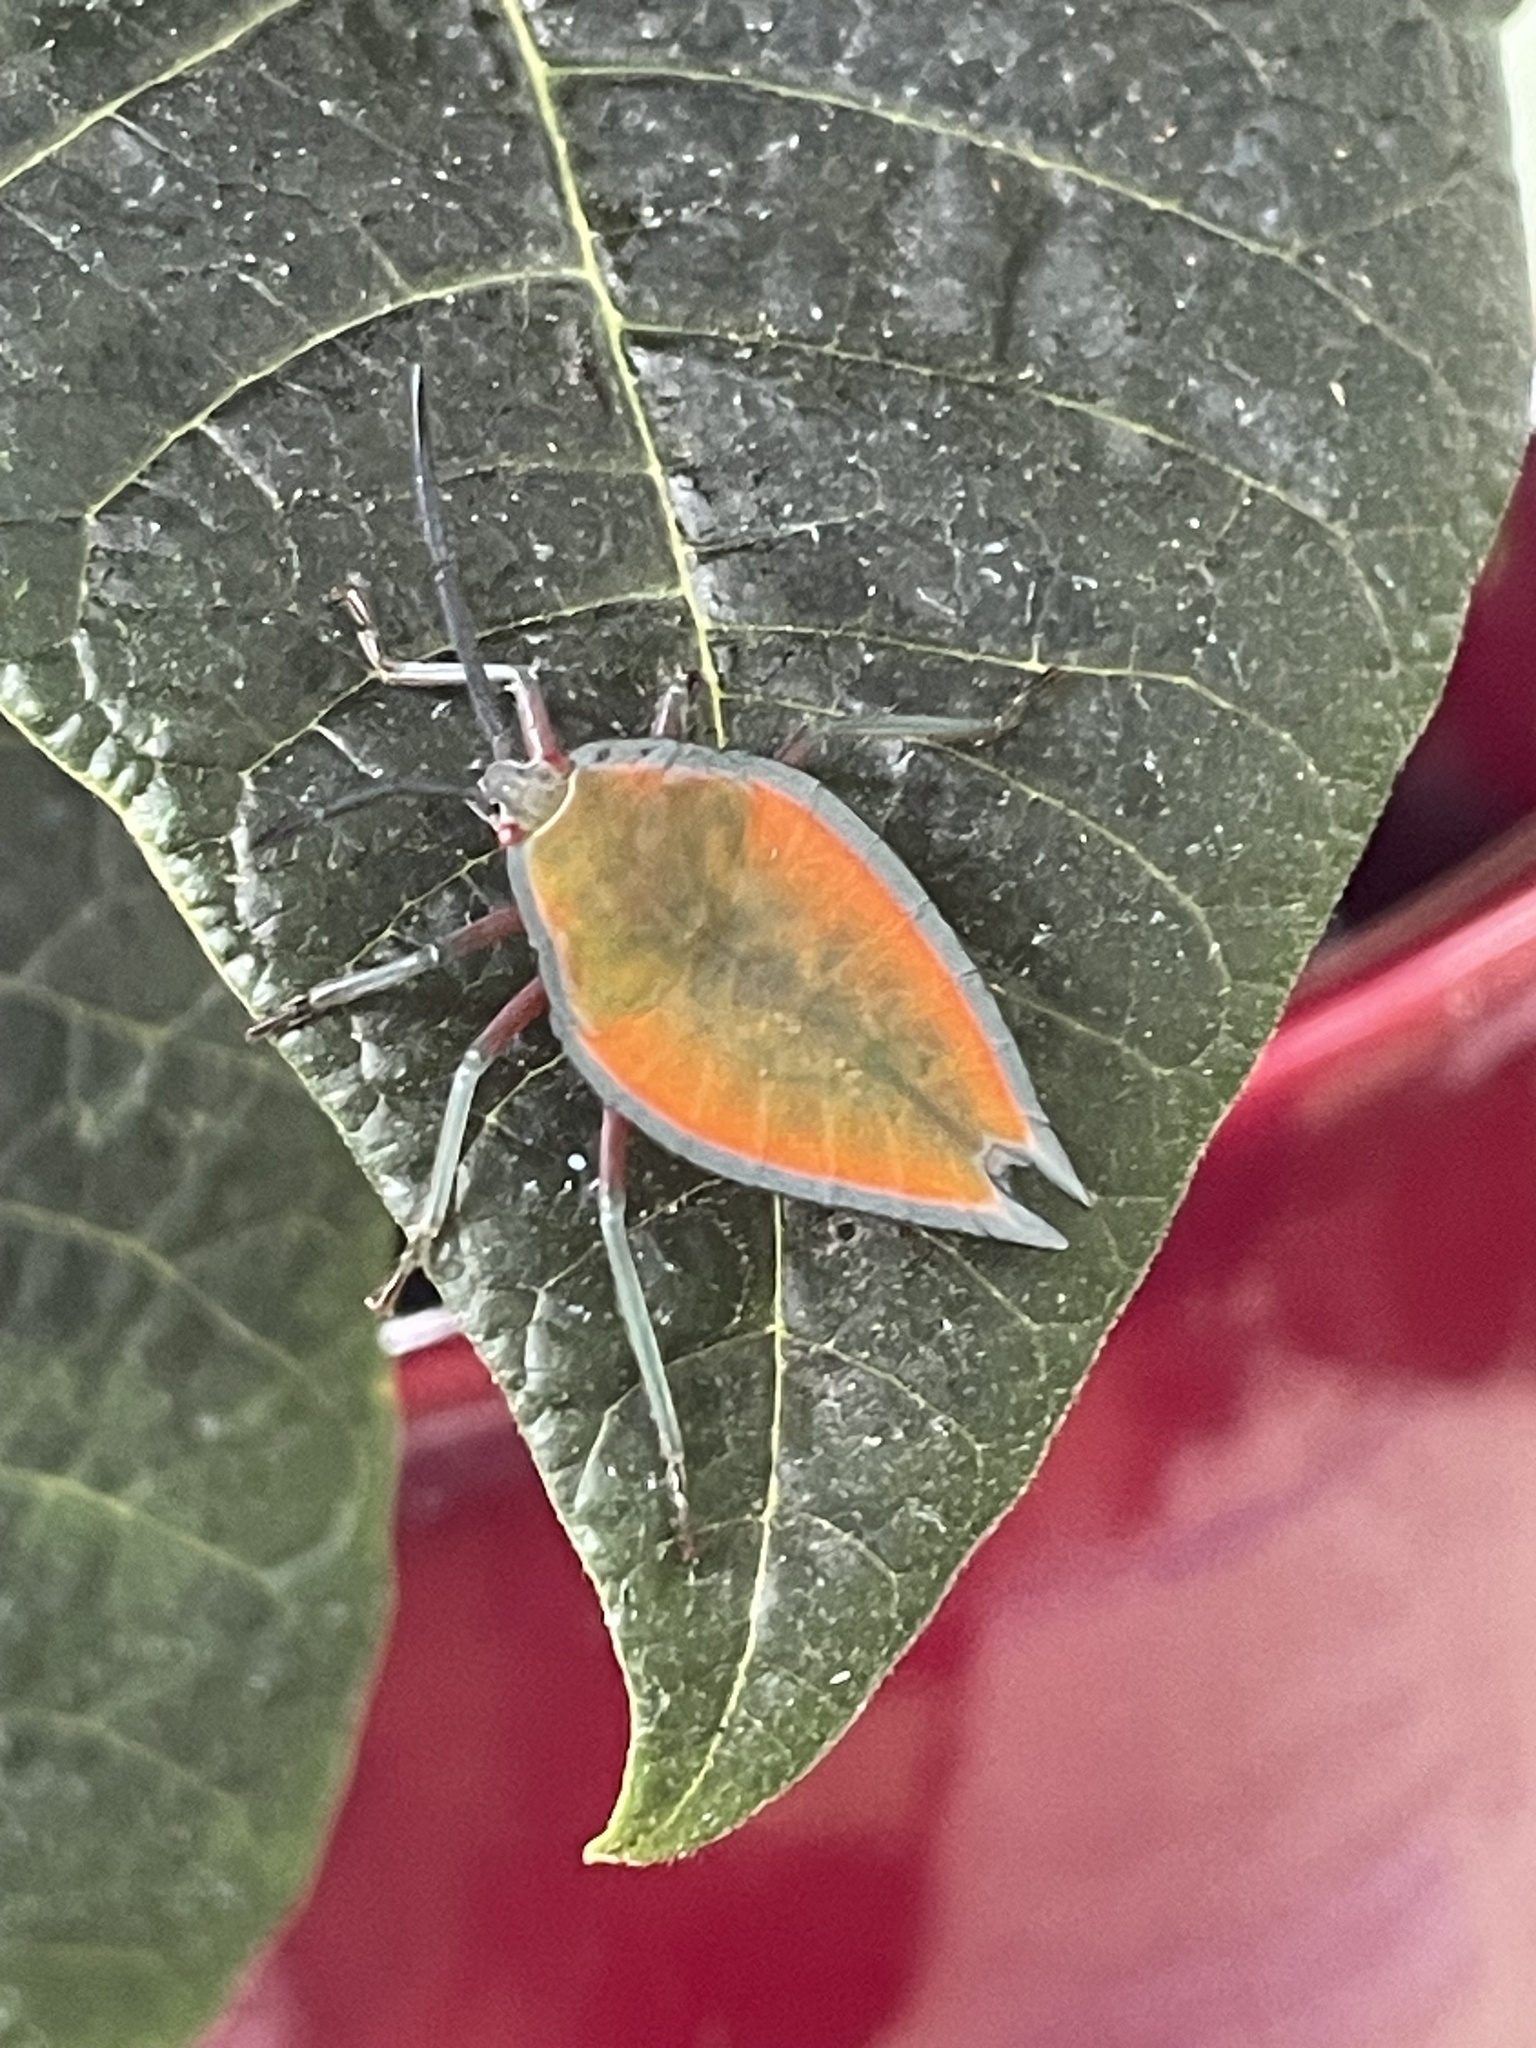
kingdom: Animalia
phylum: Arthropoda
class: Insecta
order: Hemiptera
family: Tessaratomidae
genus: Lyramorpha
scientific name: Lyramorpha rosea
